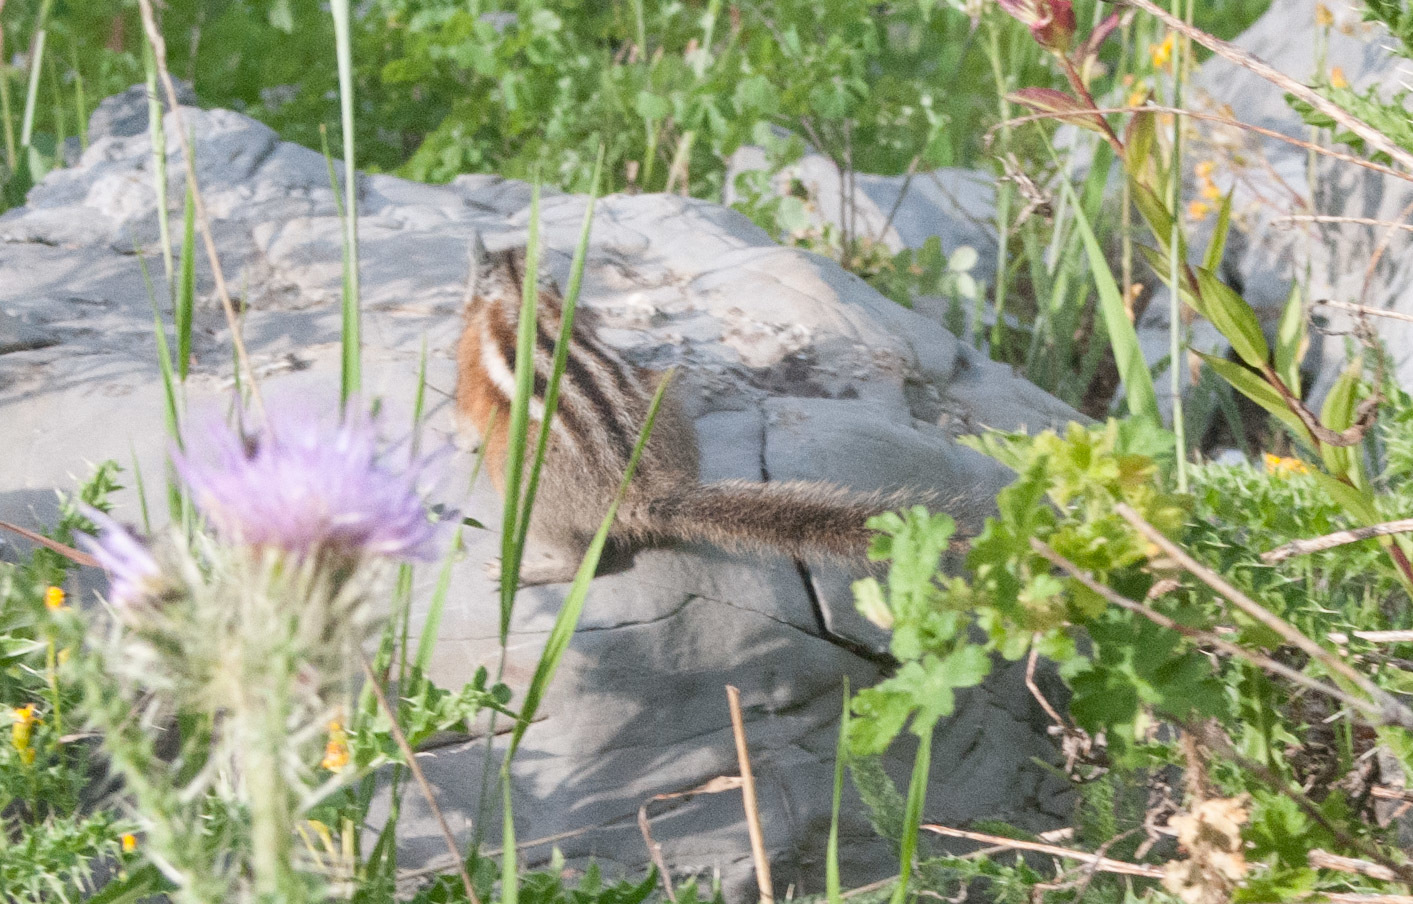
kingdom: Animalia
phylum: Chordata
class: Mammalia
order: Rodentia
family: Sciuridae
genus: Tamias
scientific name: Tamias umbrinus
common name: Uinta chipmunk
